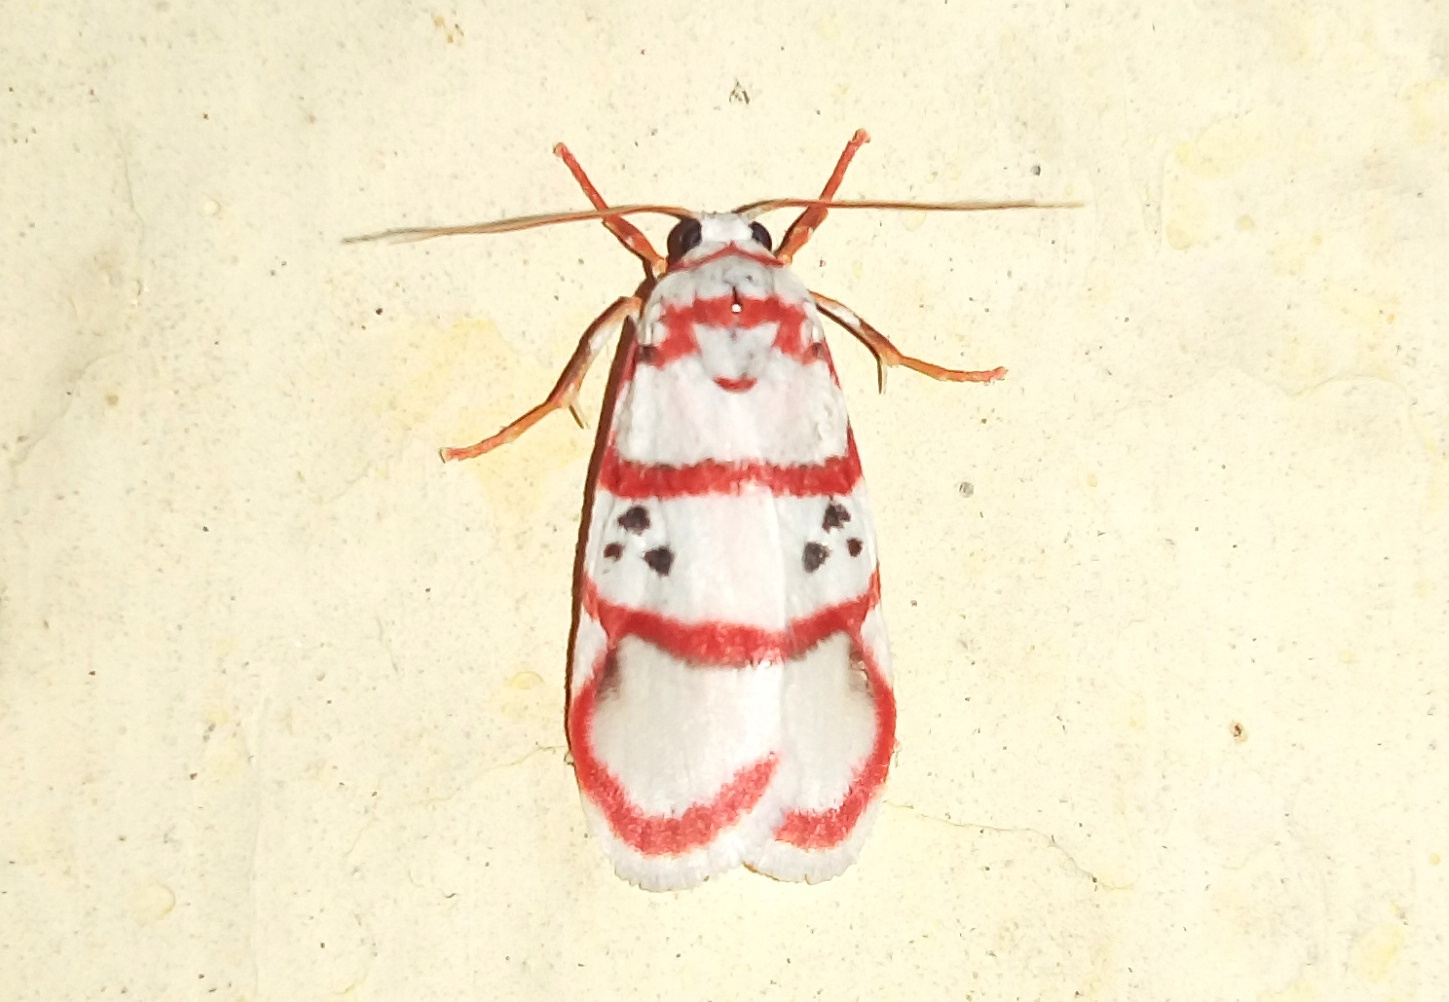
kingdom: Animalia
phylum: Arthropoda
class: Insecta
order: Lepidoptera
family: Erebidae
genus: Cyana
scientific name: Cyana peregrina
